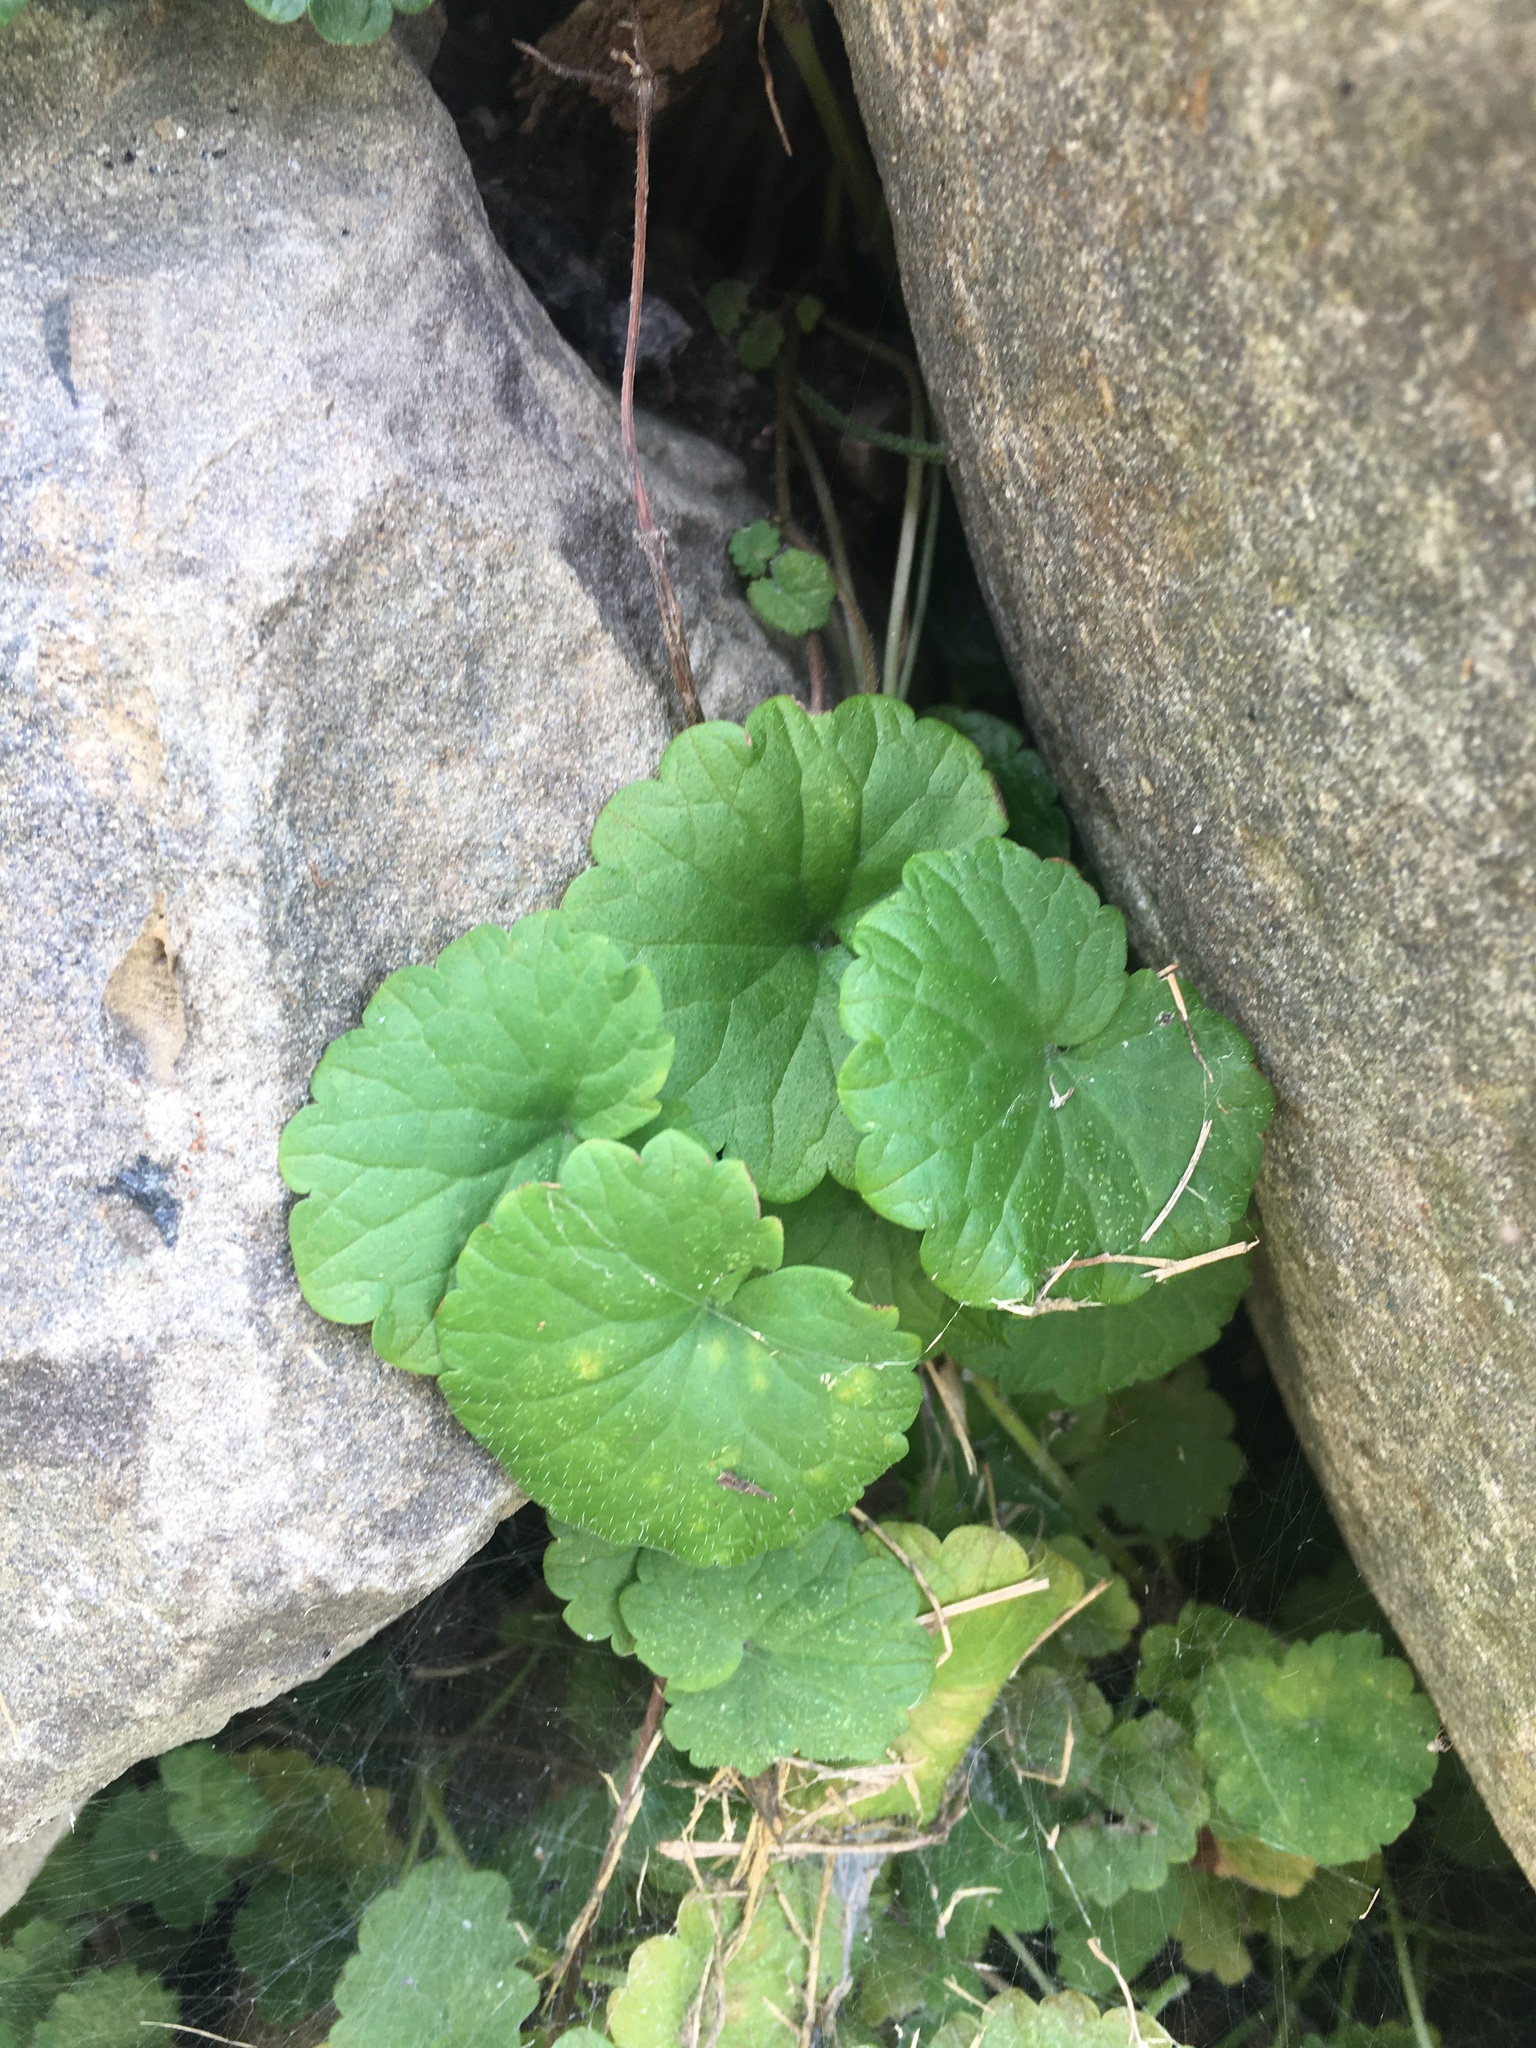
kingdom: Plantae
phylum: Tracheophyta
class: Magnoliopsida
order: Lamiales
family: Lamiaceae
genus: Glechoma
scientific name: Glechoma hederacea
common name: Ground ivy
